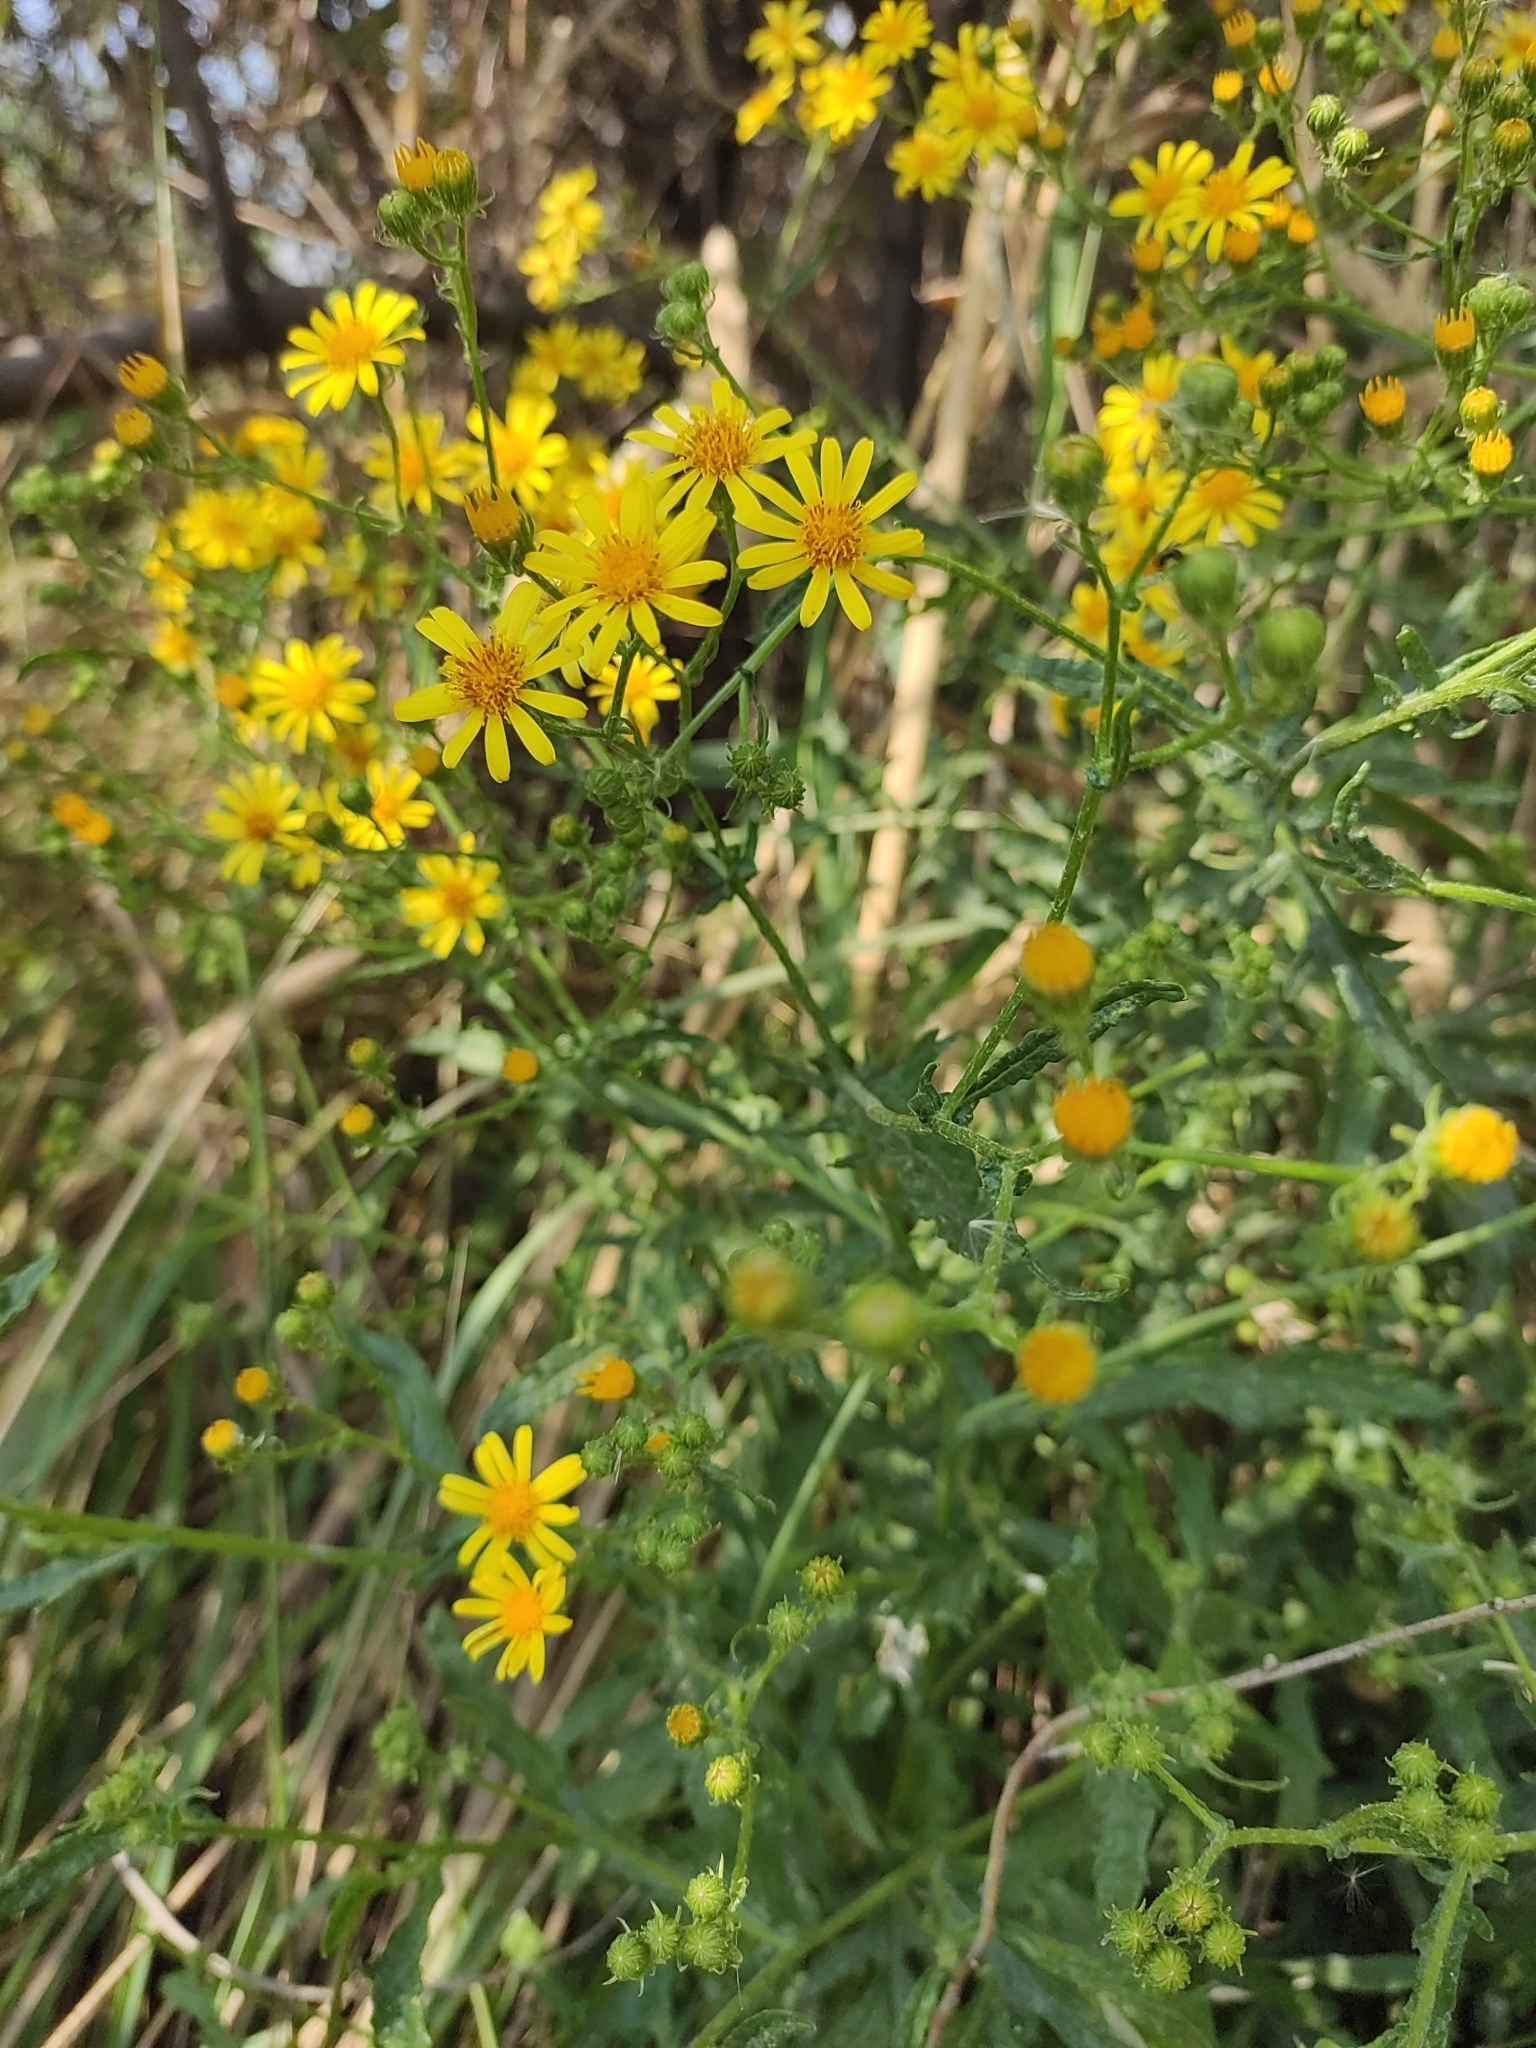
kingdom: Plantae
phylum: Tracheophyta
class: Magnoliopsida
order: Asterales
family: Asteraceae
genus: Jacobaea
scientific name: Jacobaea erucifolia
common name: Hoary ragwort
